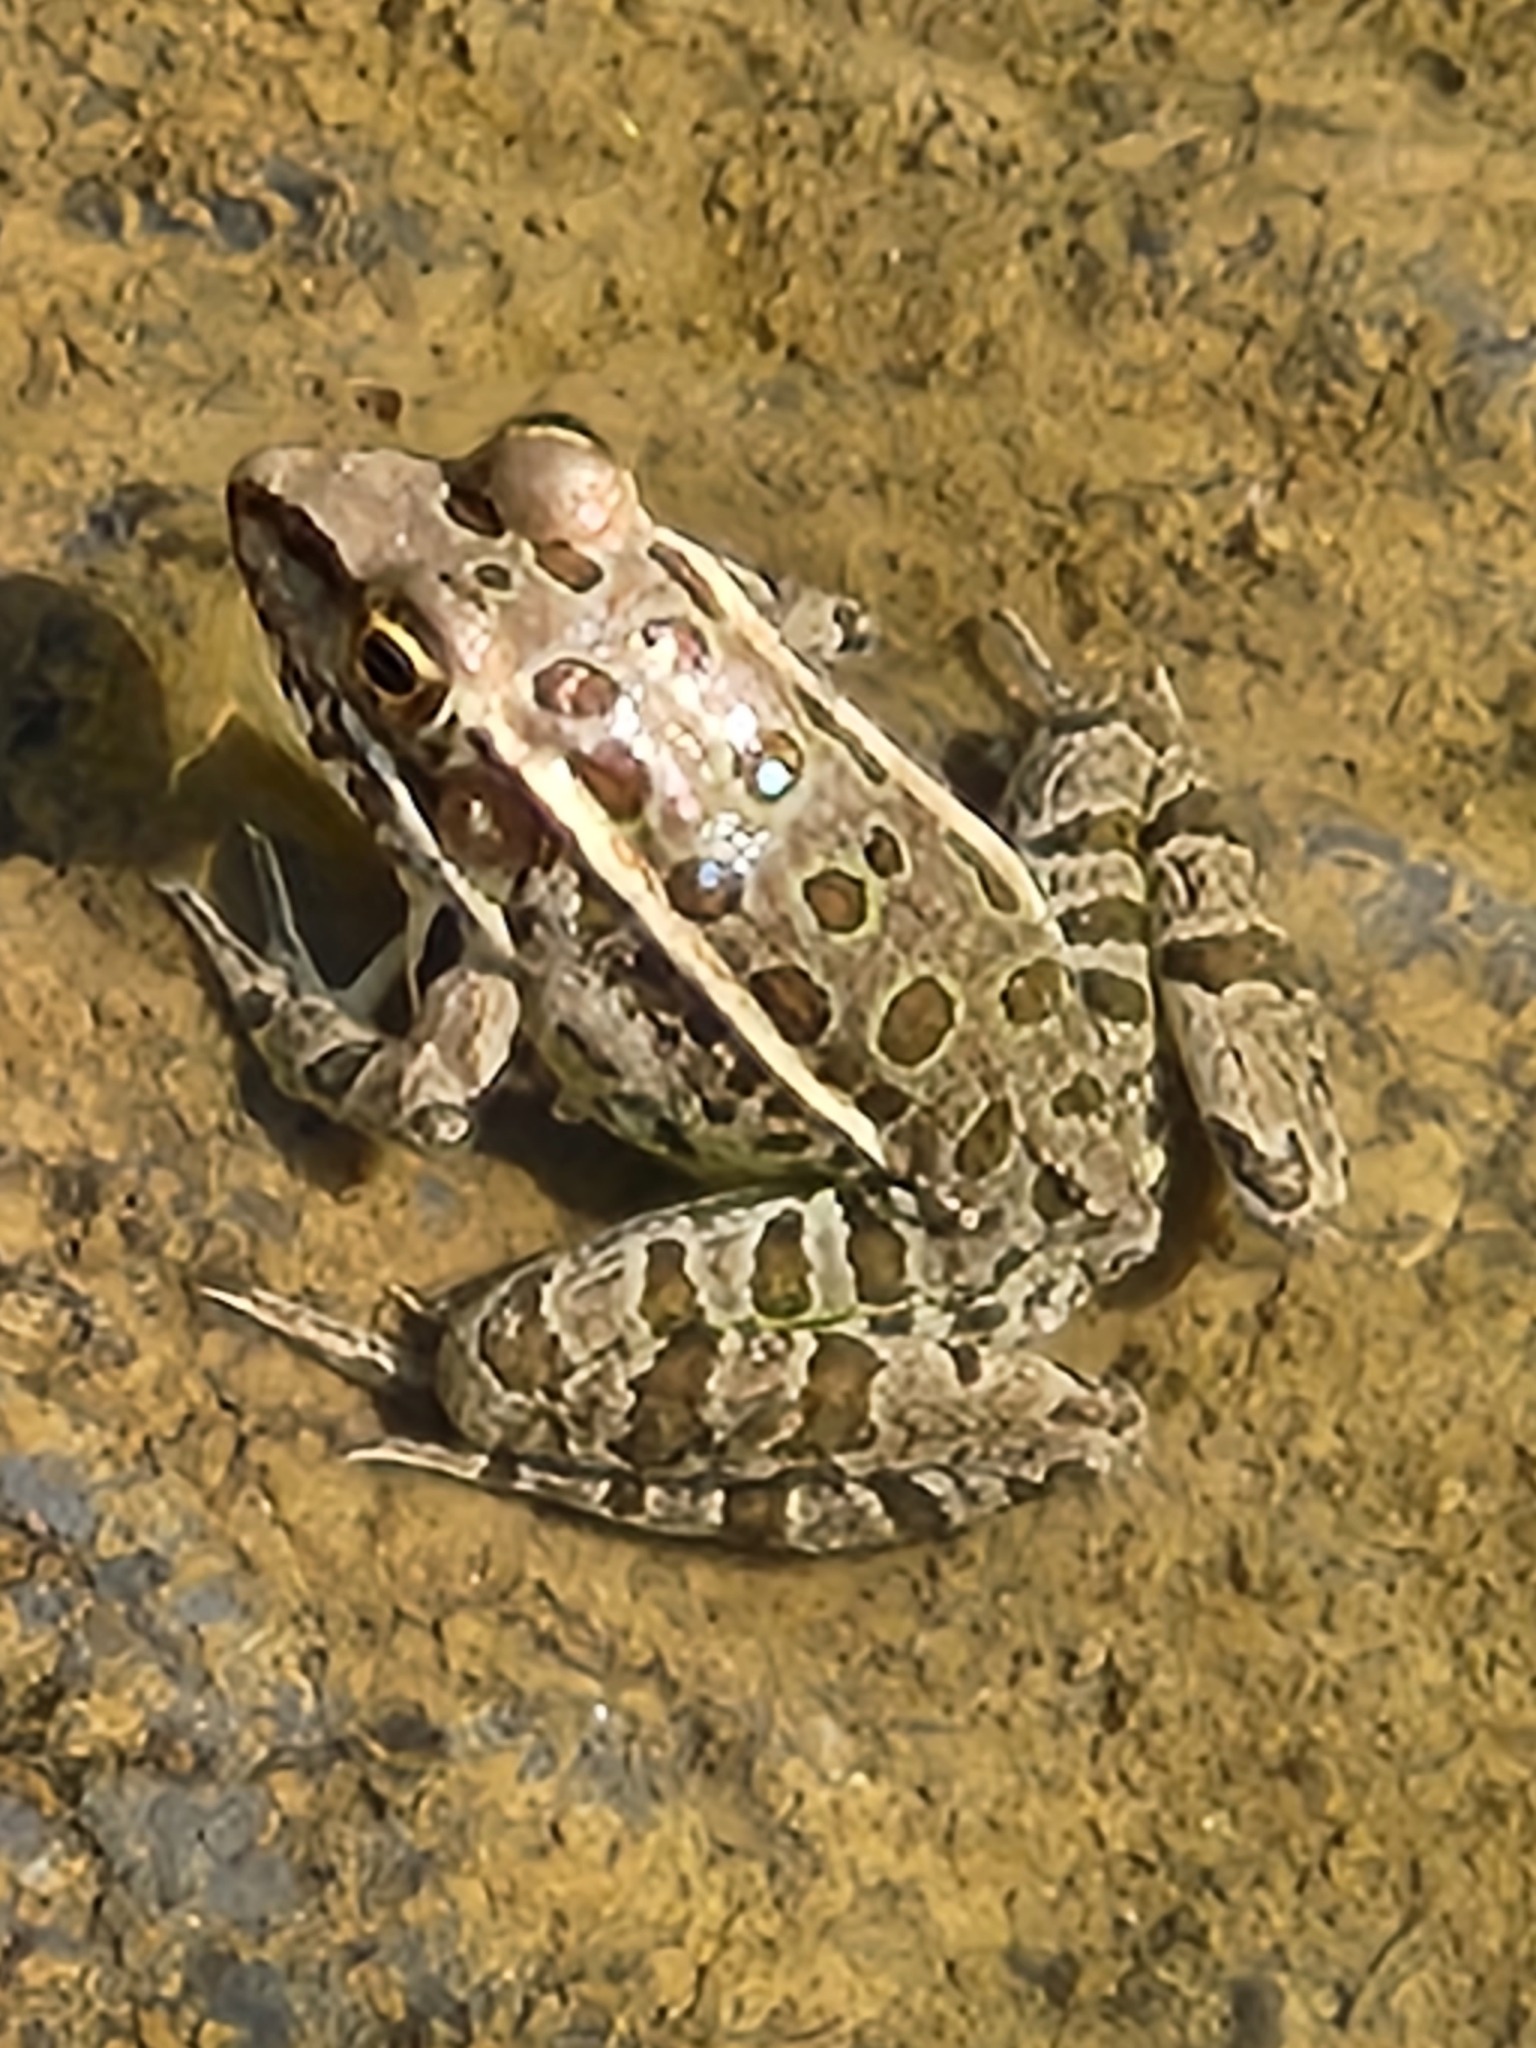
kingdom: Animalia
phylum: Chordata
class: Amphibia
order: Anura
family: Ranidae
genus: Lithobates
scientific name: Lithobates berlandieri
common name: Rio grande leopard frog
